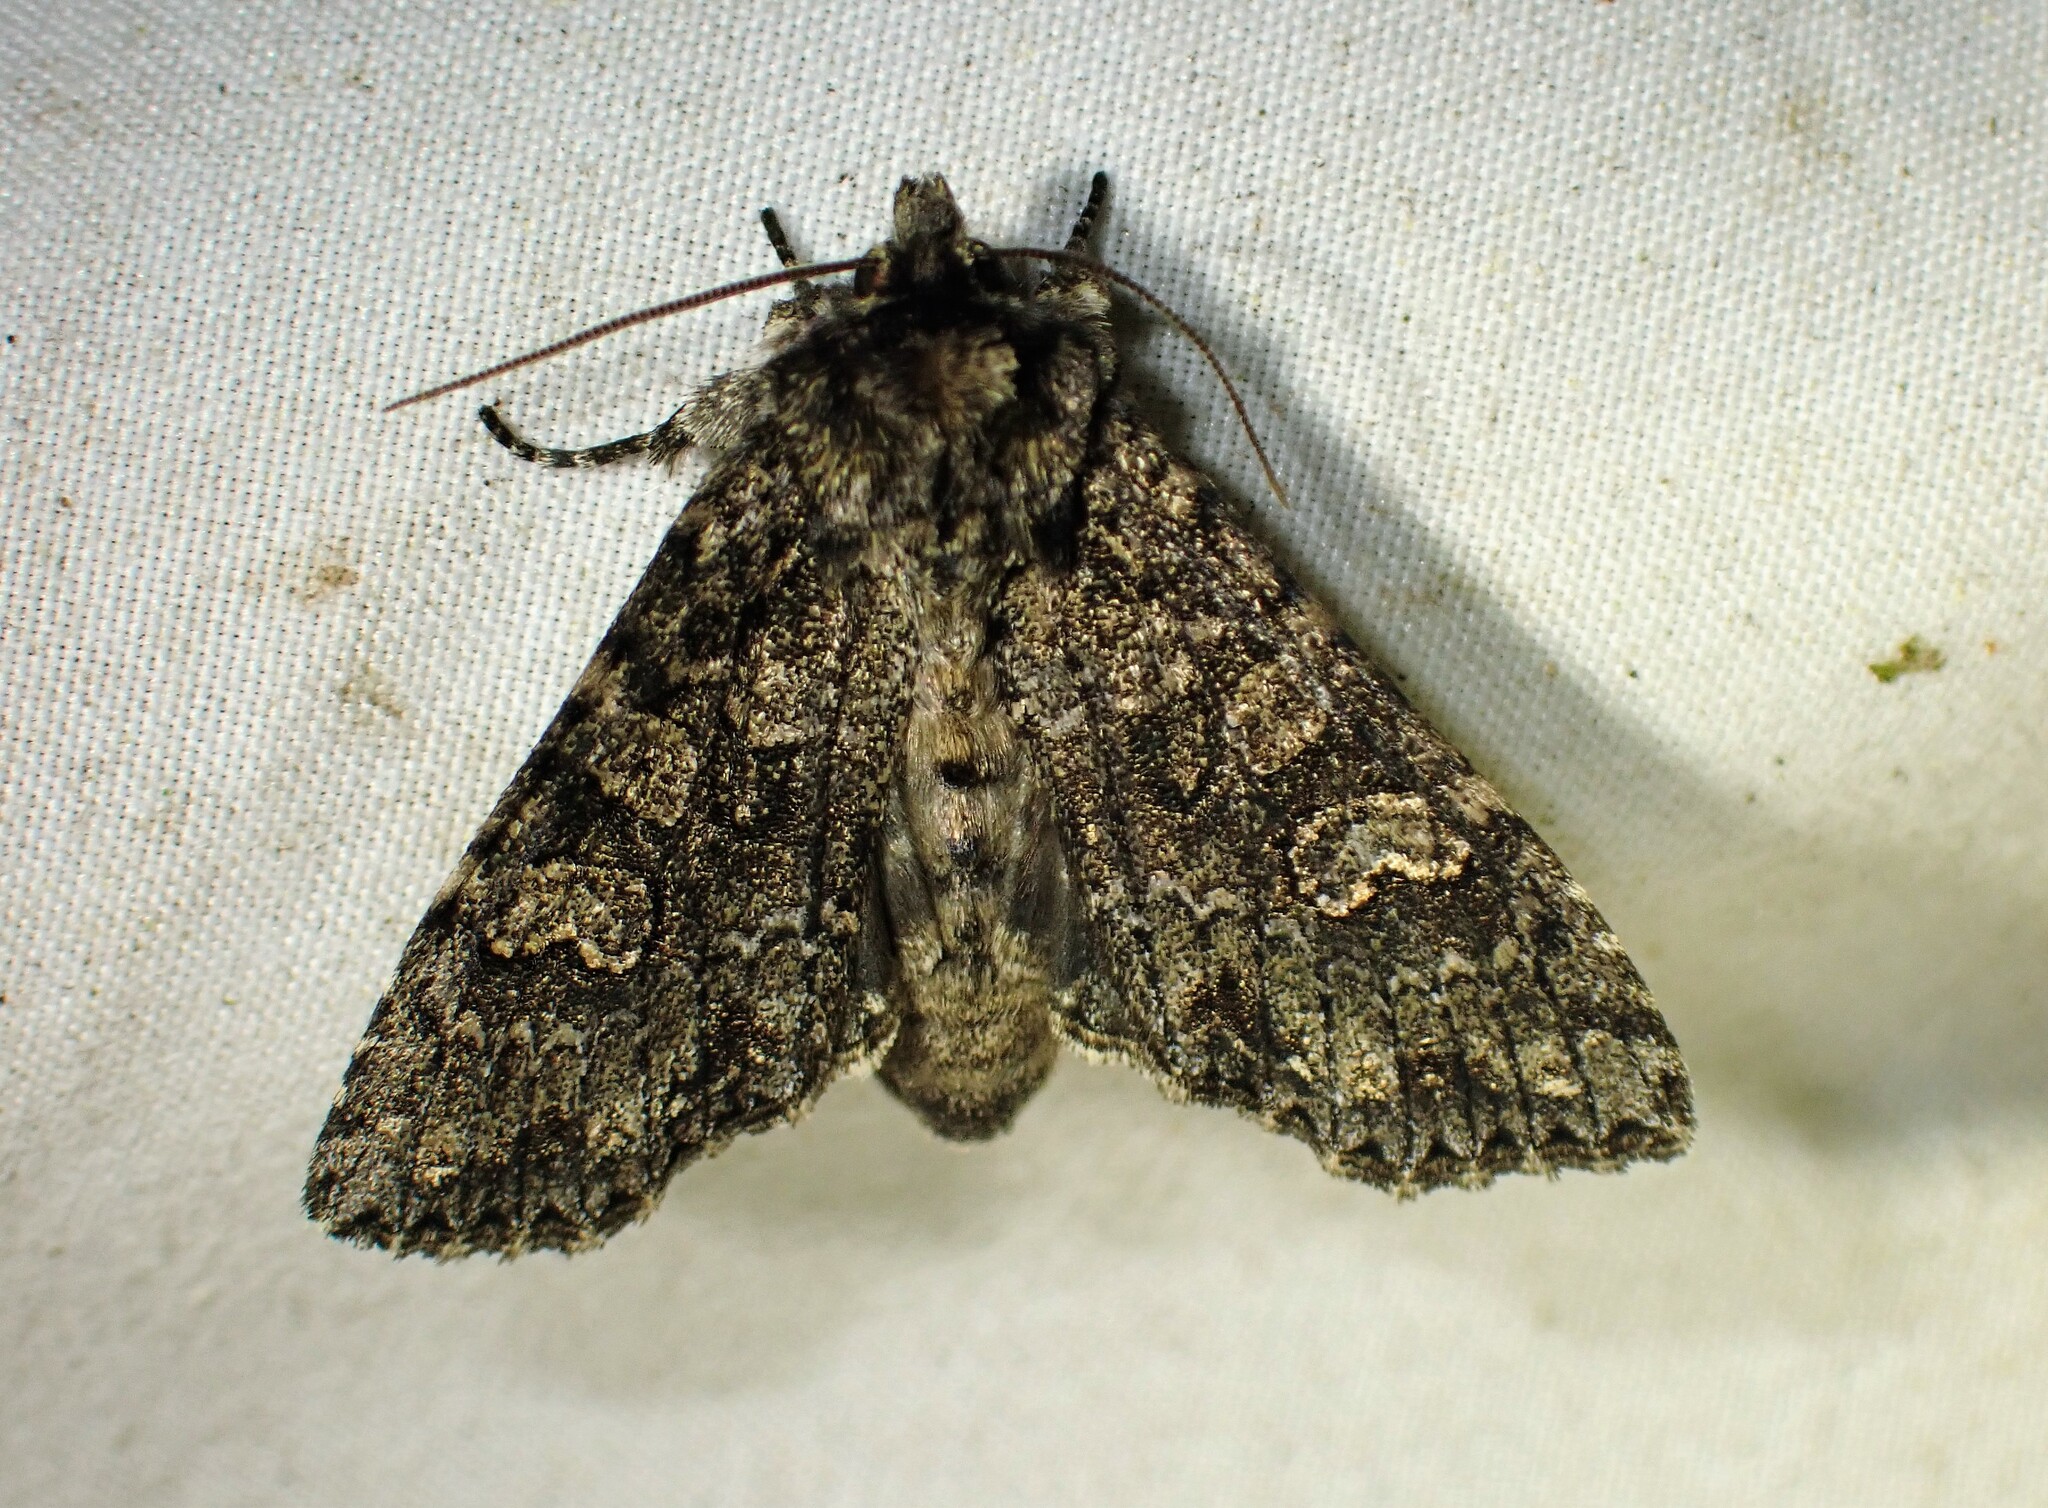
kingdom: Animalia
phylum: Arthropoda
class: Insecta
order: Lepidoptera
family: Noctuidae
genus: Polia
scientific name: Polia imbrifera
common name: Cloudy arches moth
